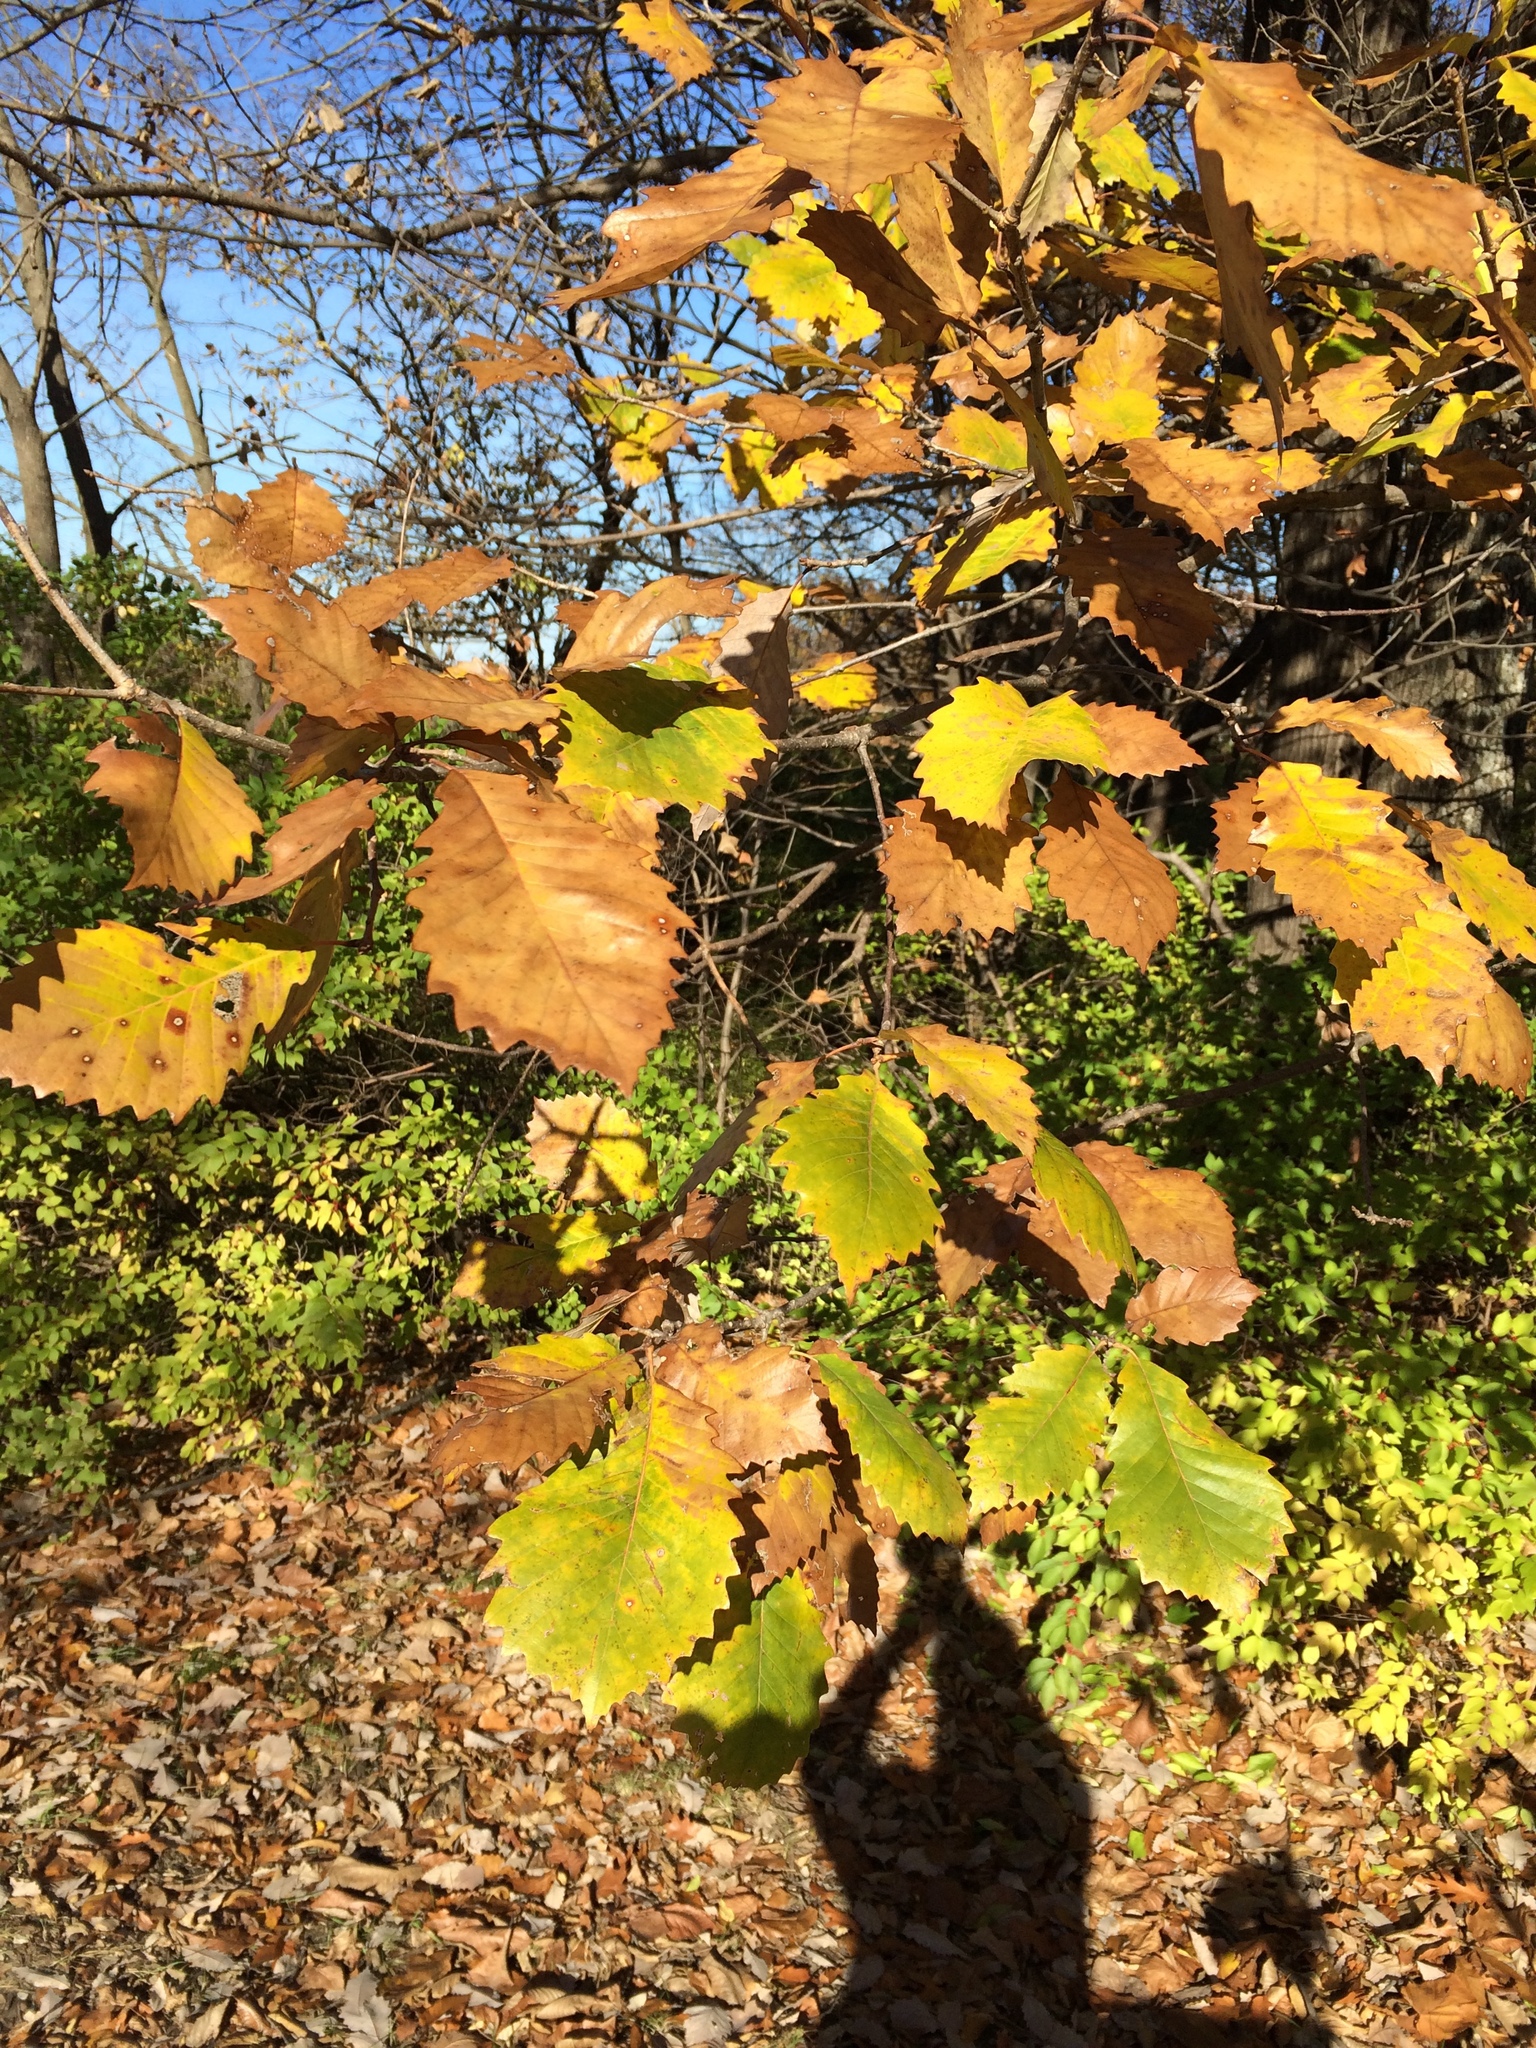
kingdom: Plantae
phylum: Tracheophyta
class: Magnoliopsida
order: Fagales
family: Fagaceae
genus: Quercus
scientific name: Quercus muehlenbergii
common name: Chinkapin oak
